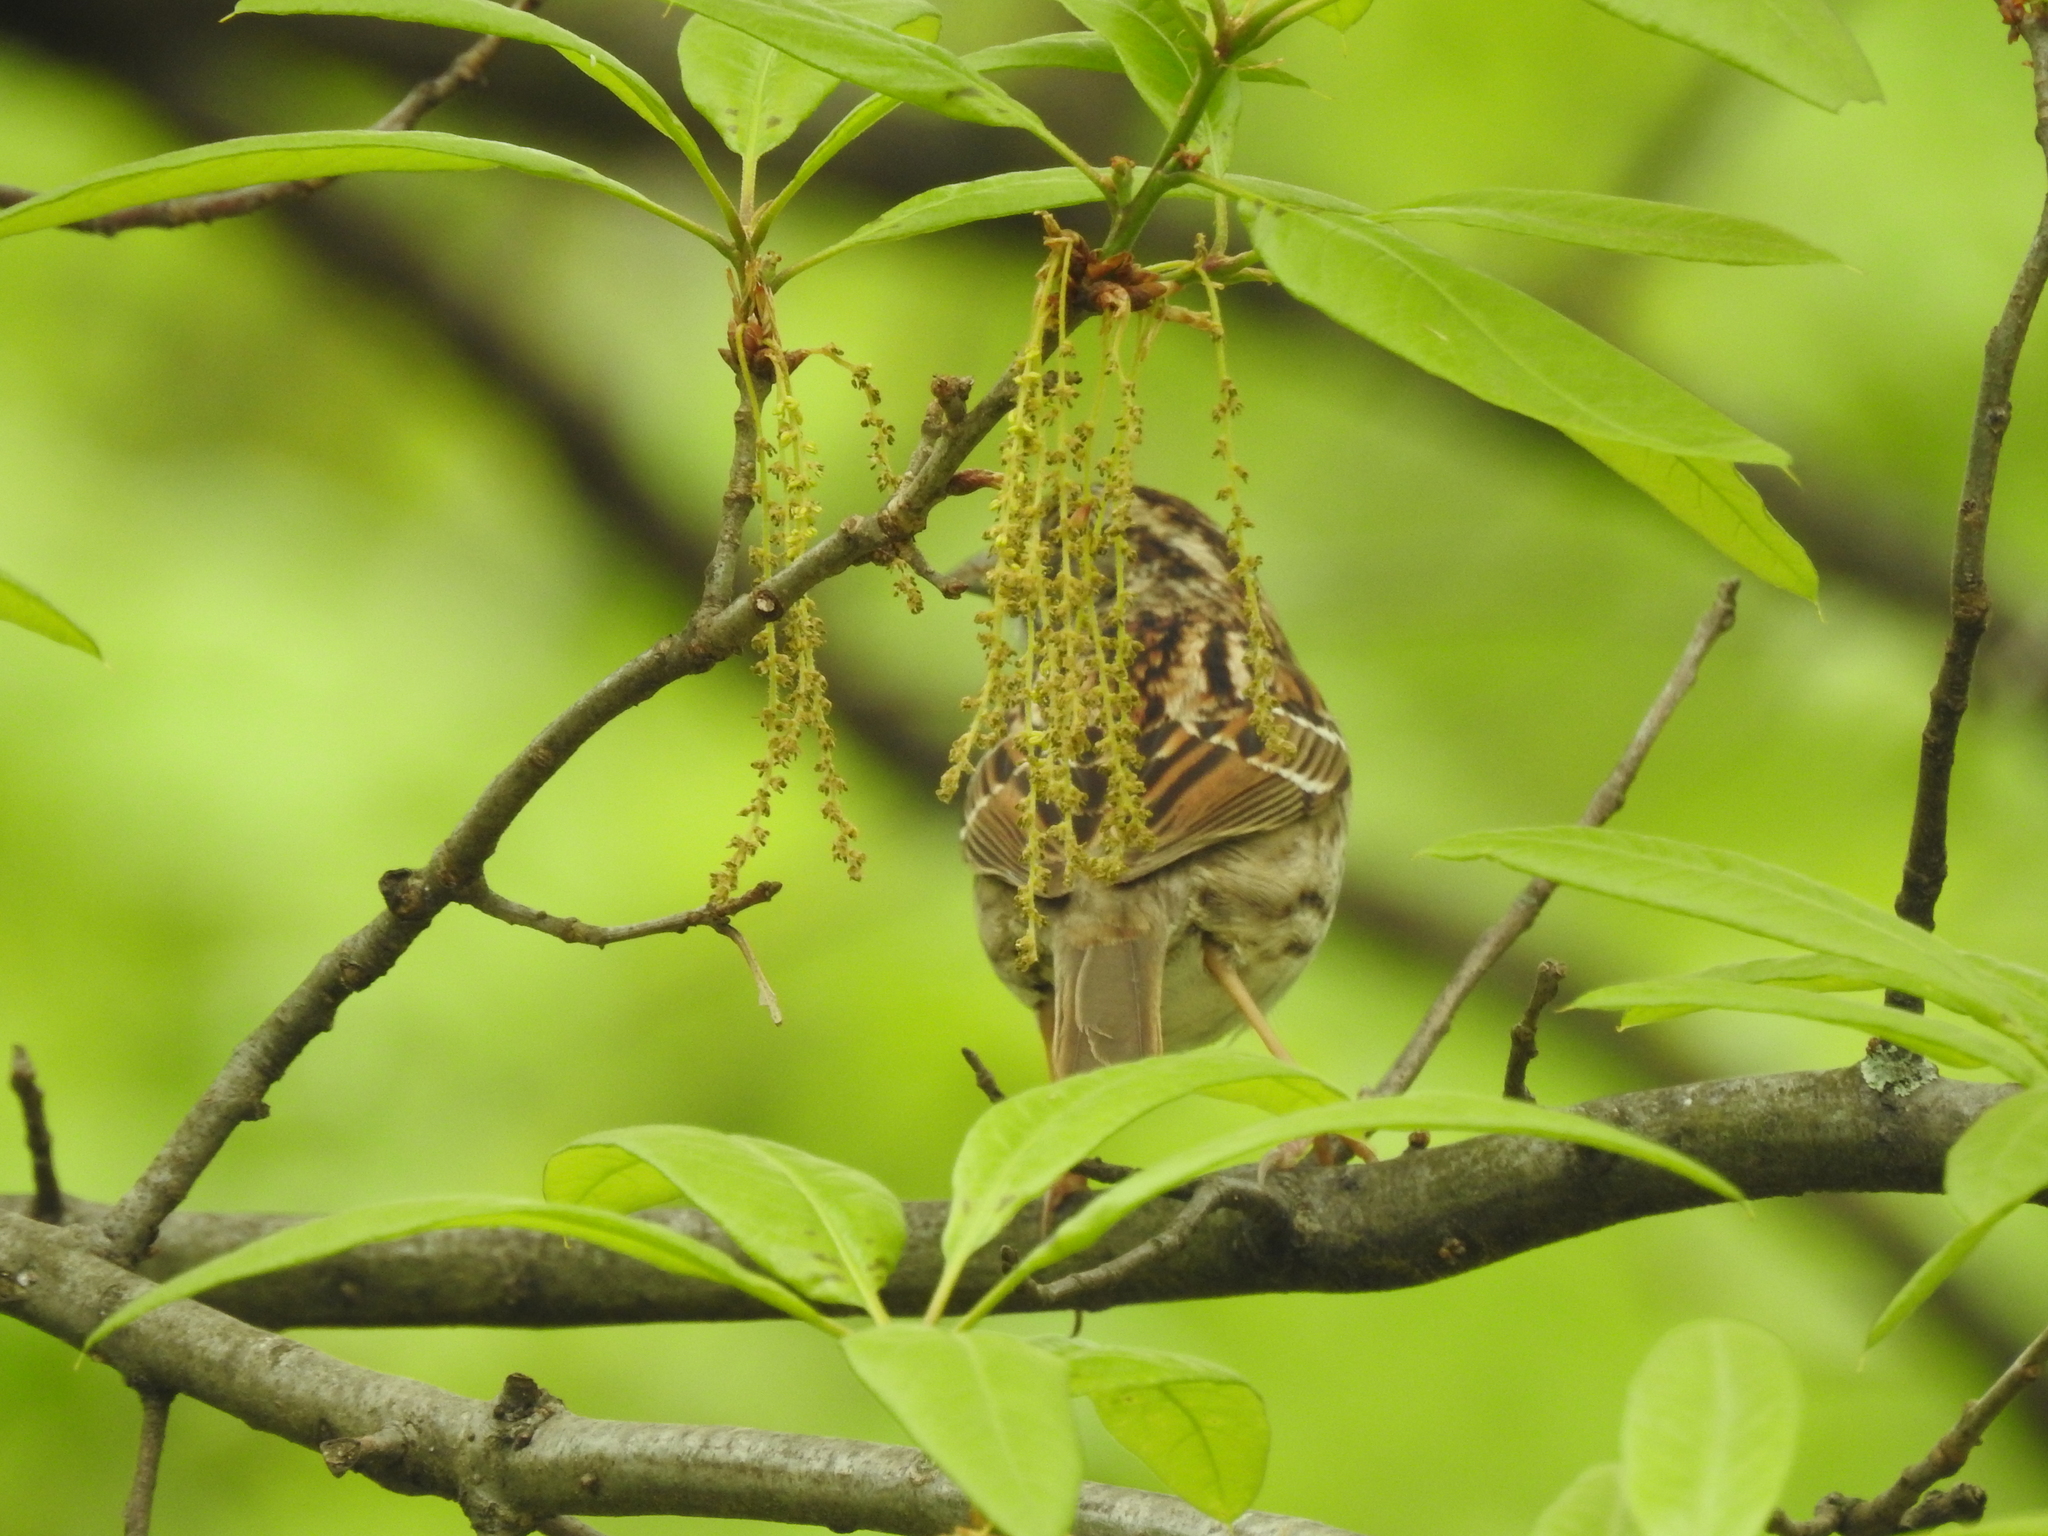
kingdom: Animalia
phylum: Chordata
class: Aves
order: Passeriformes
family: Passerellidae
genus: Zonotrichia
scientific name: Zonotrichia albicollis
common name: White-throated sparrow
